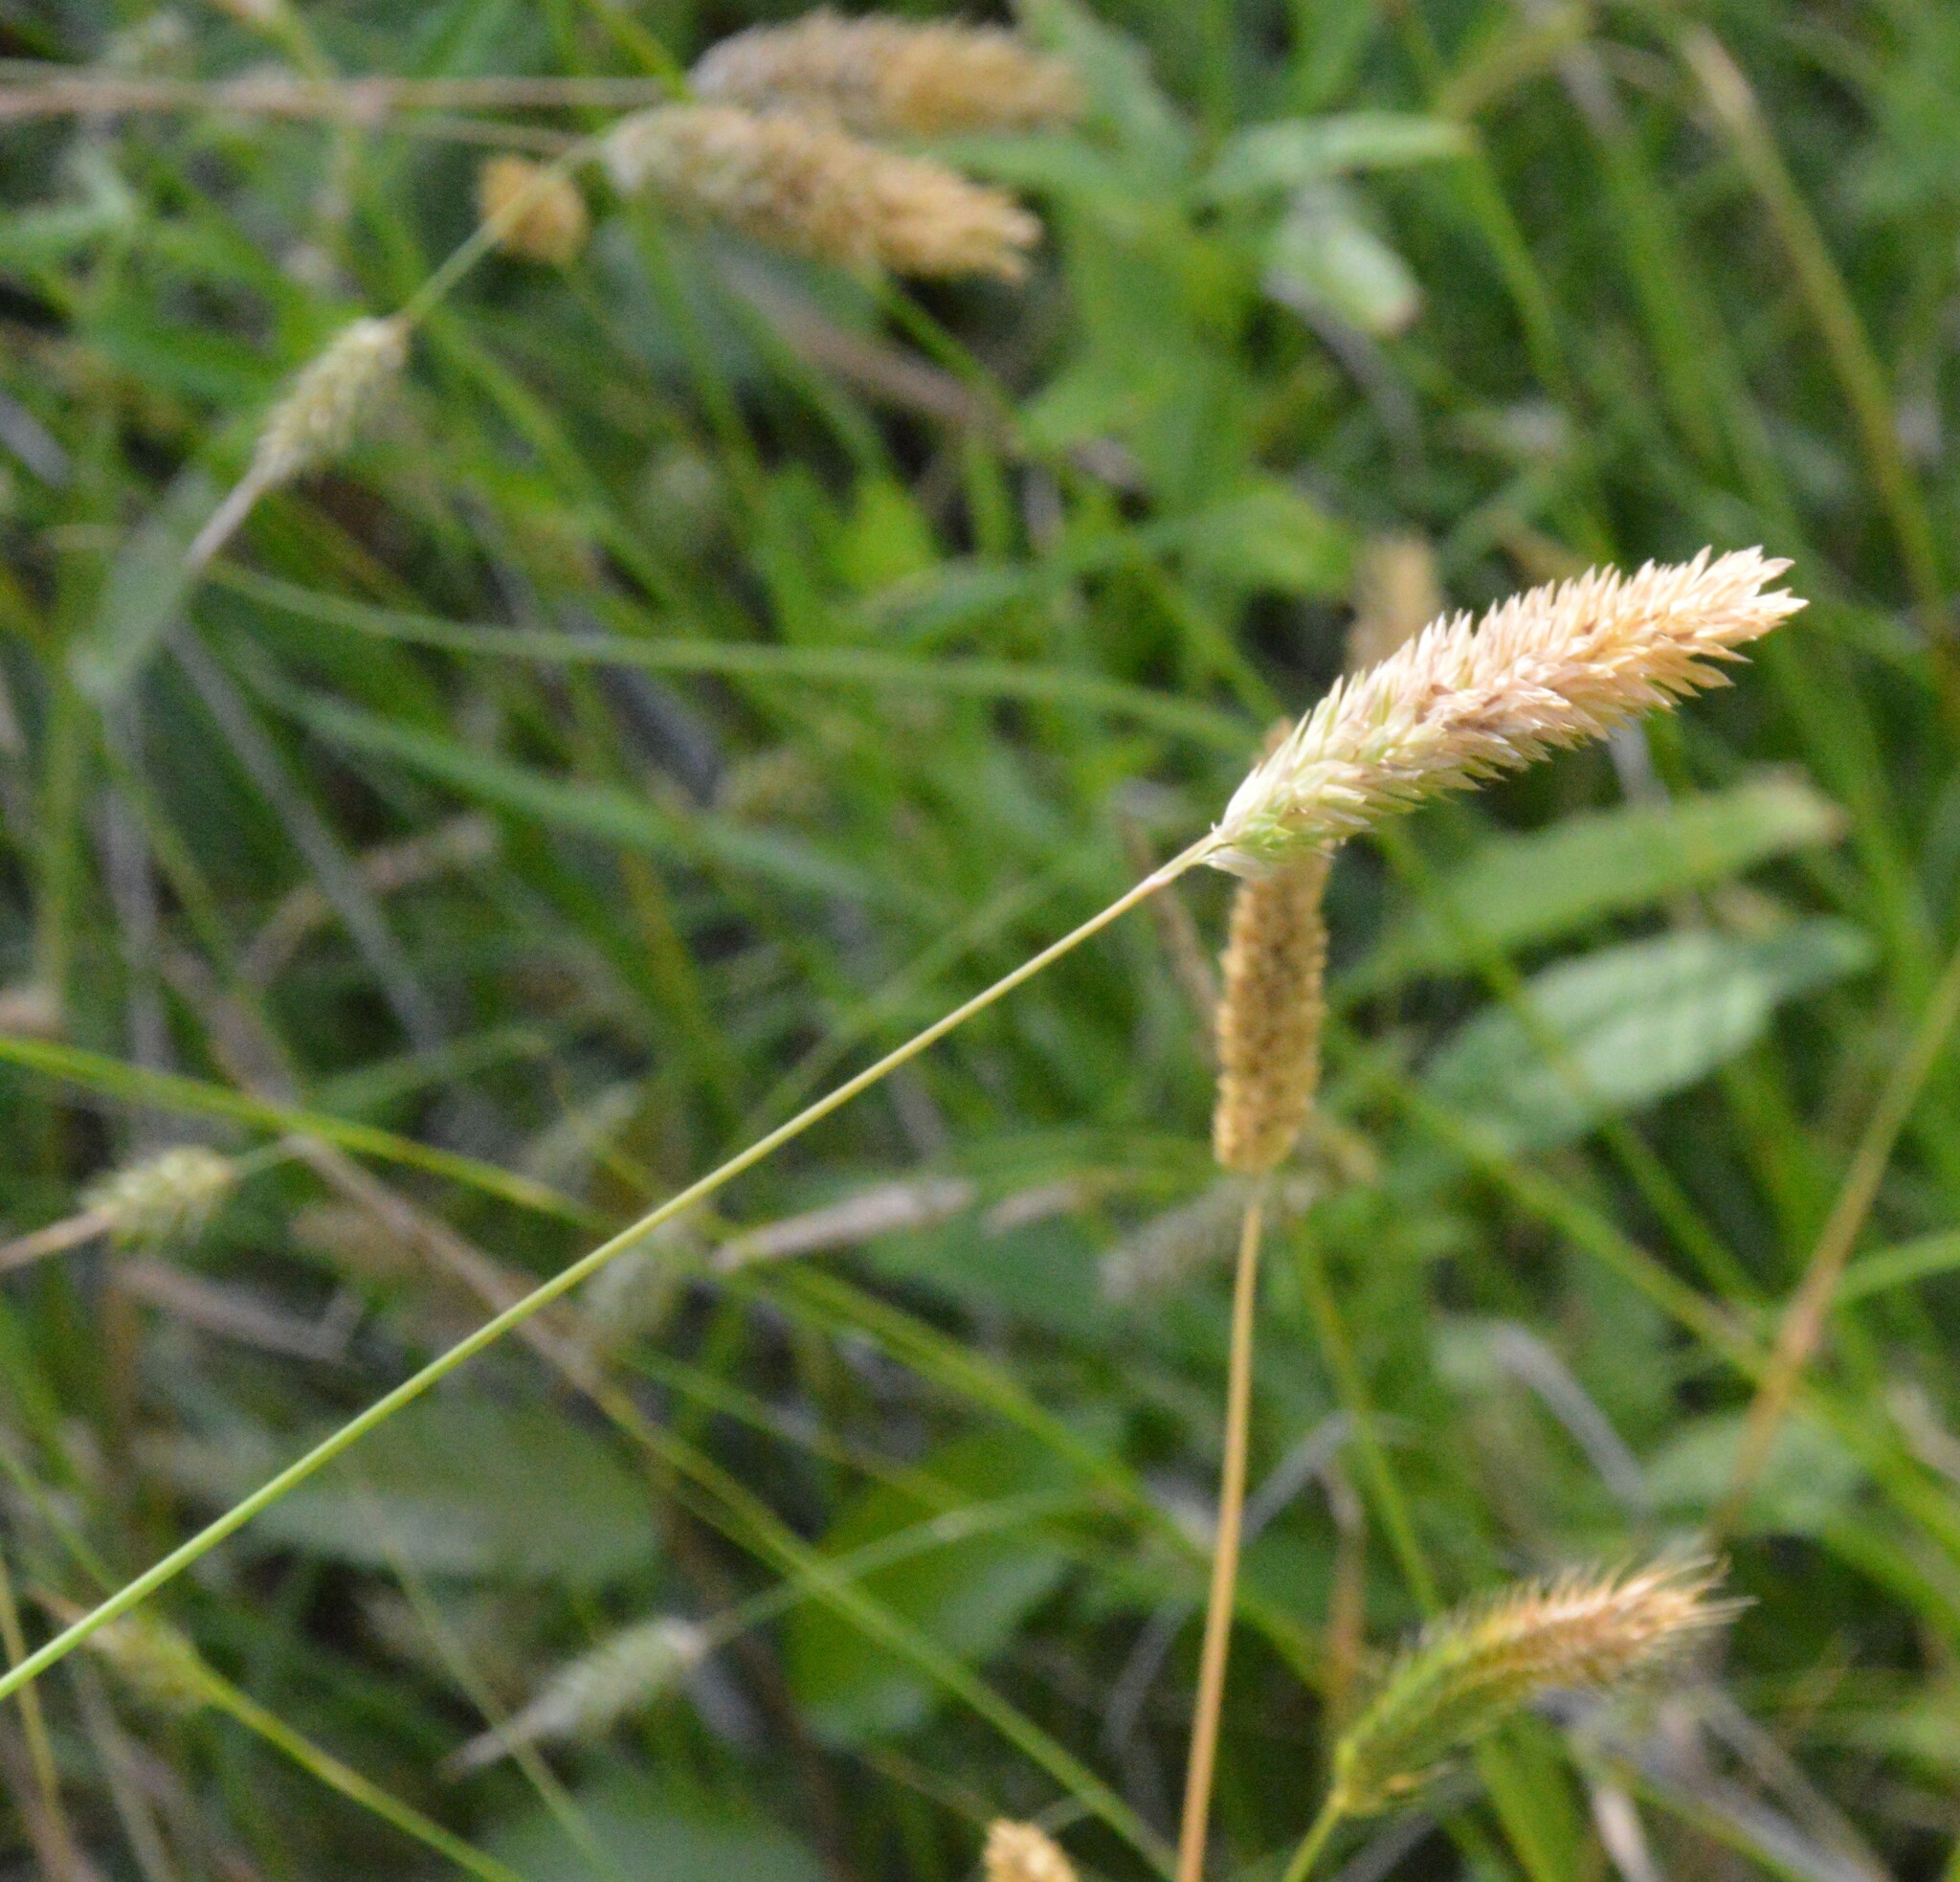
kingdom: Plantae
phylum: Tracheophyta
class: Liliopsida
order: Poales
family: Poaceae
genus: Phalaris
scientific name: Phalaris caroliniana
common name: May grass
